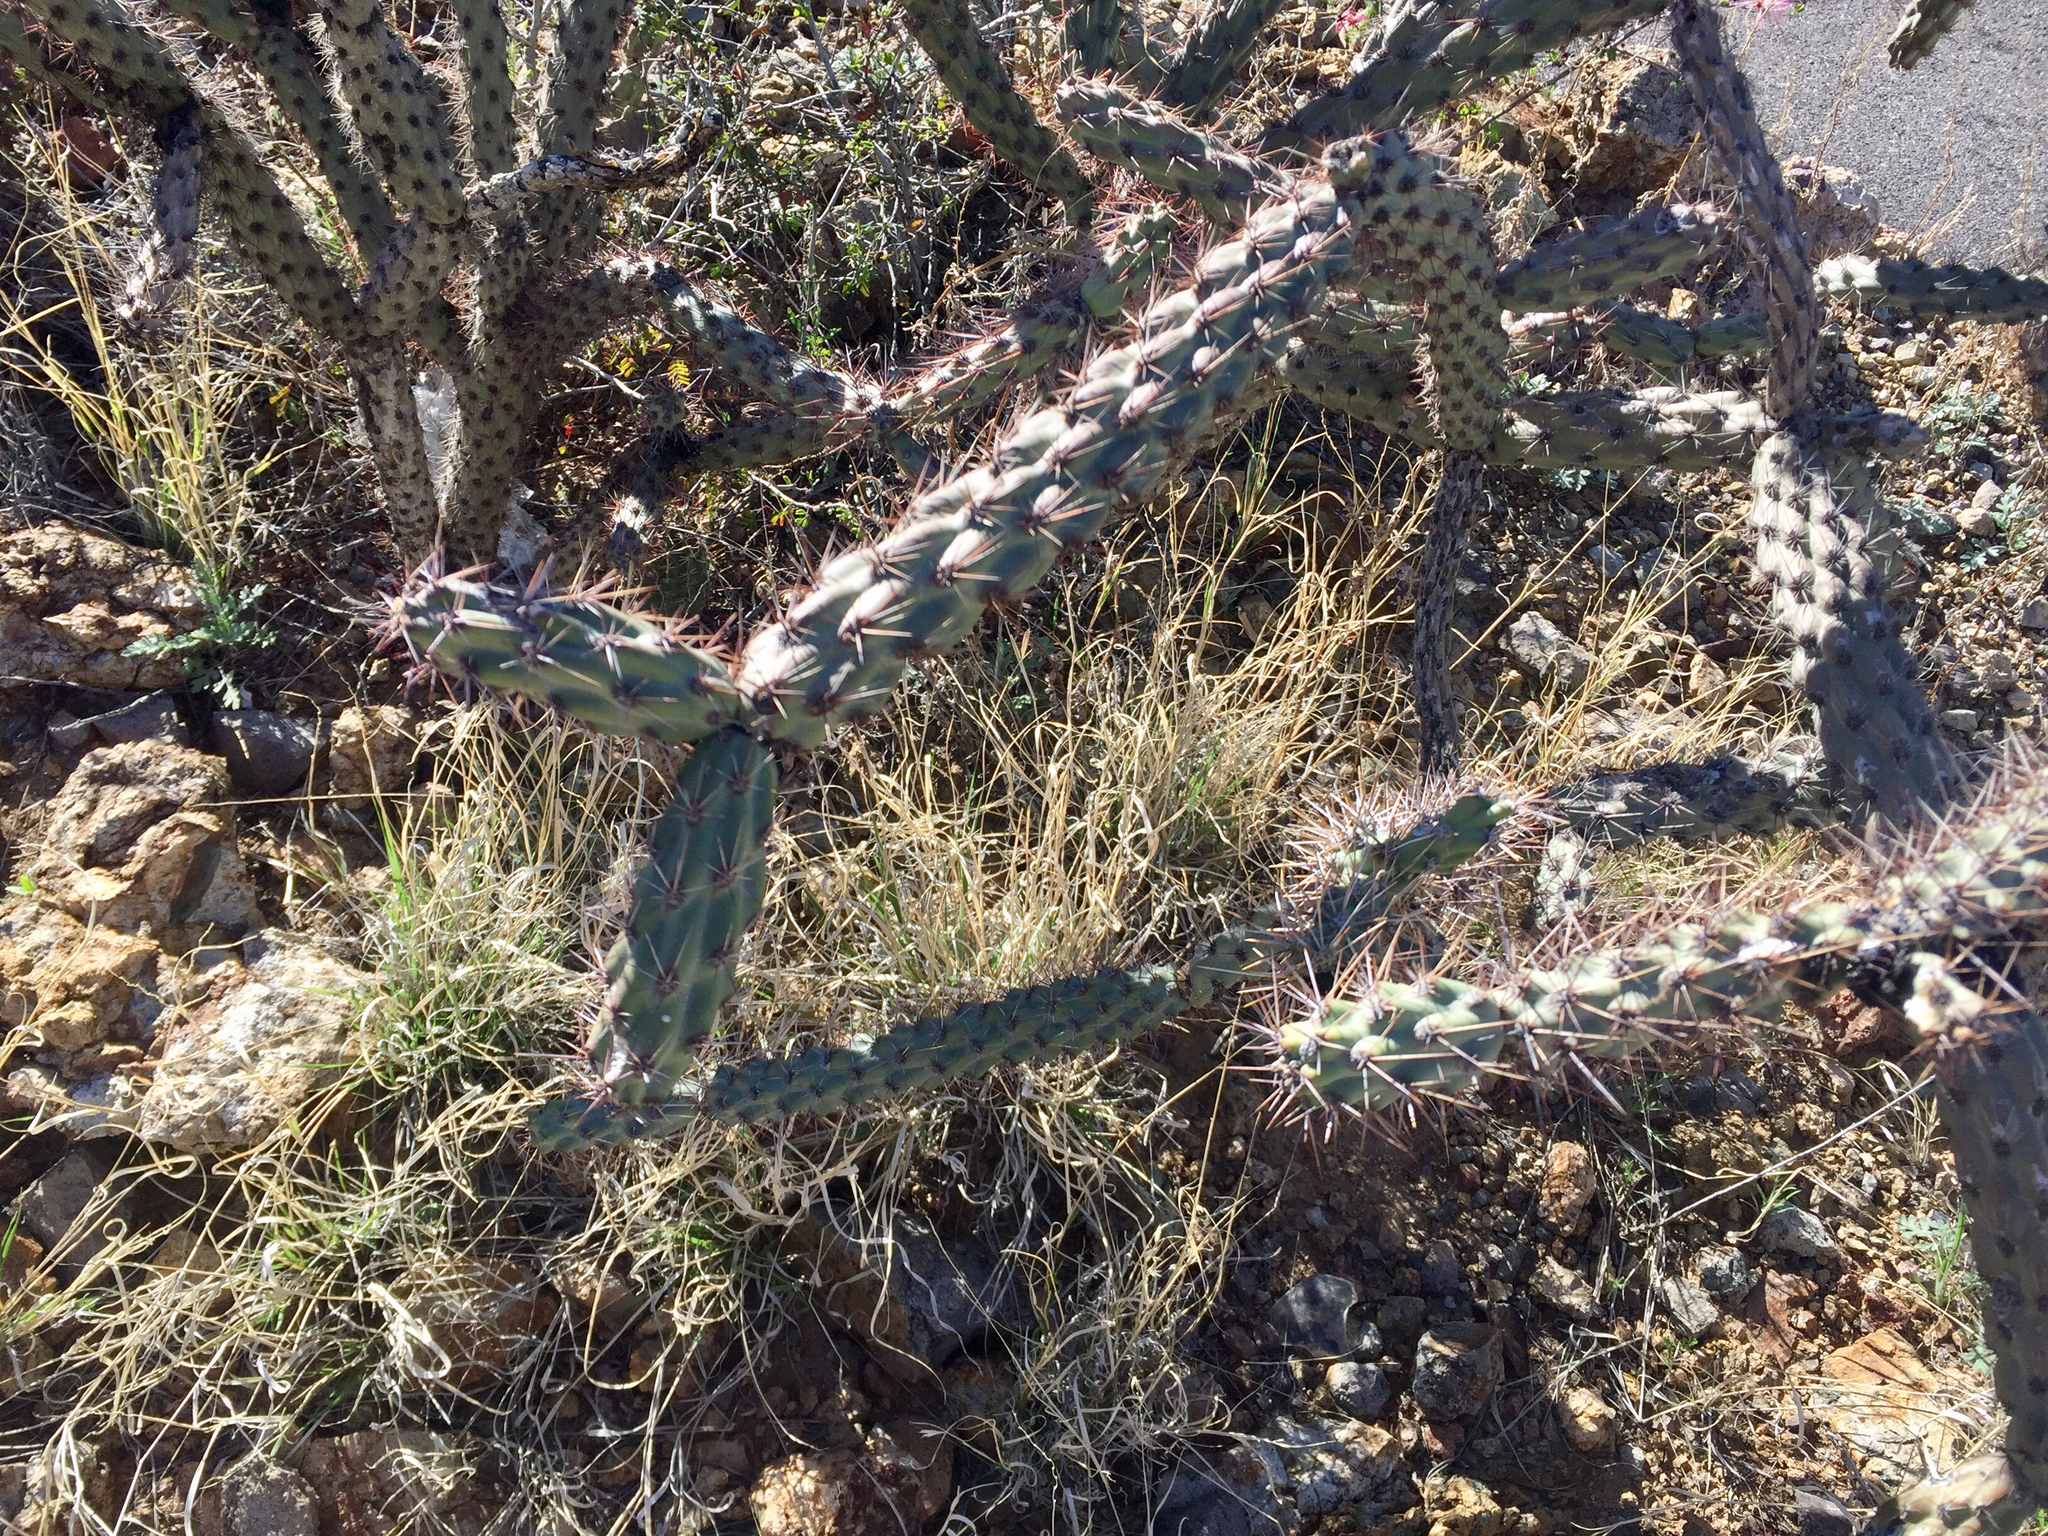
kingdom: Plantae
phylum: Tracheophyta
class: Magnoliopsida
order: Caryophyllales
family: Cactaceae
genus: Cylindropuntia
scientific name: Cylindropuntia acanthocarpa
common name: Buckhorn cholla
